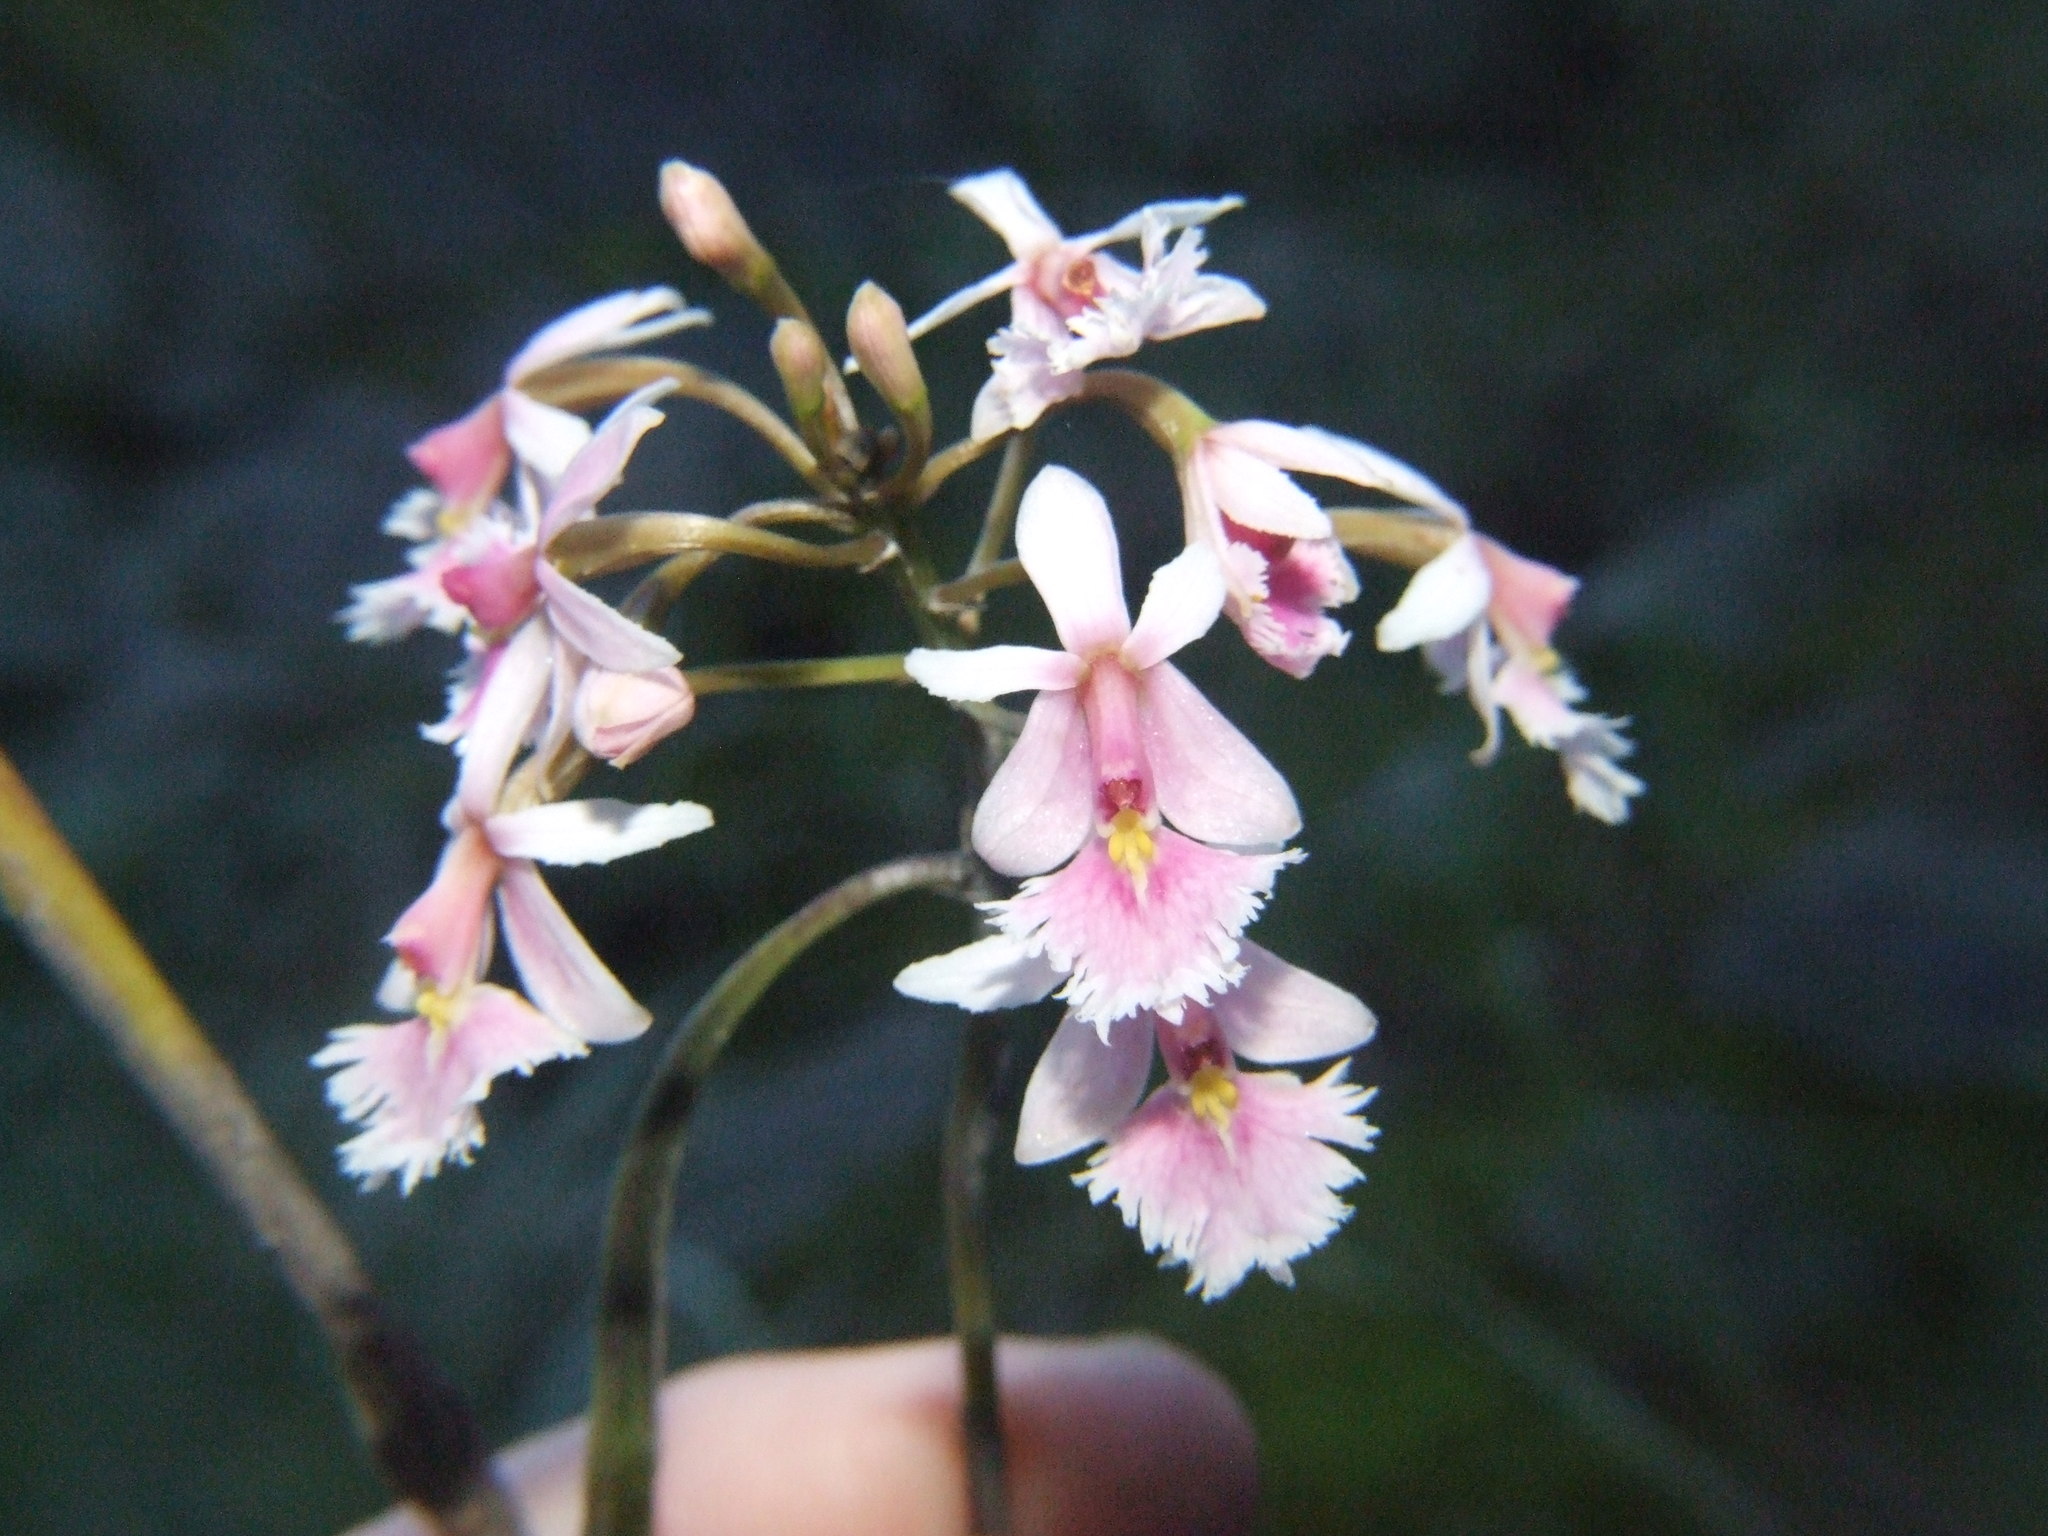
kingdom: Plantae
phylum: Tracheophyta
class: Liliopsida
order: Asparagales
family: Orchidaceae
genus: Epidendrum
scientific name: Epidendrum calanthum
